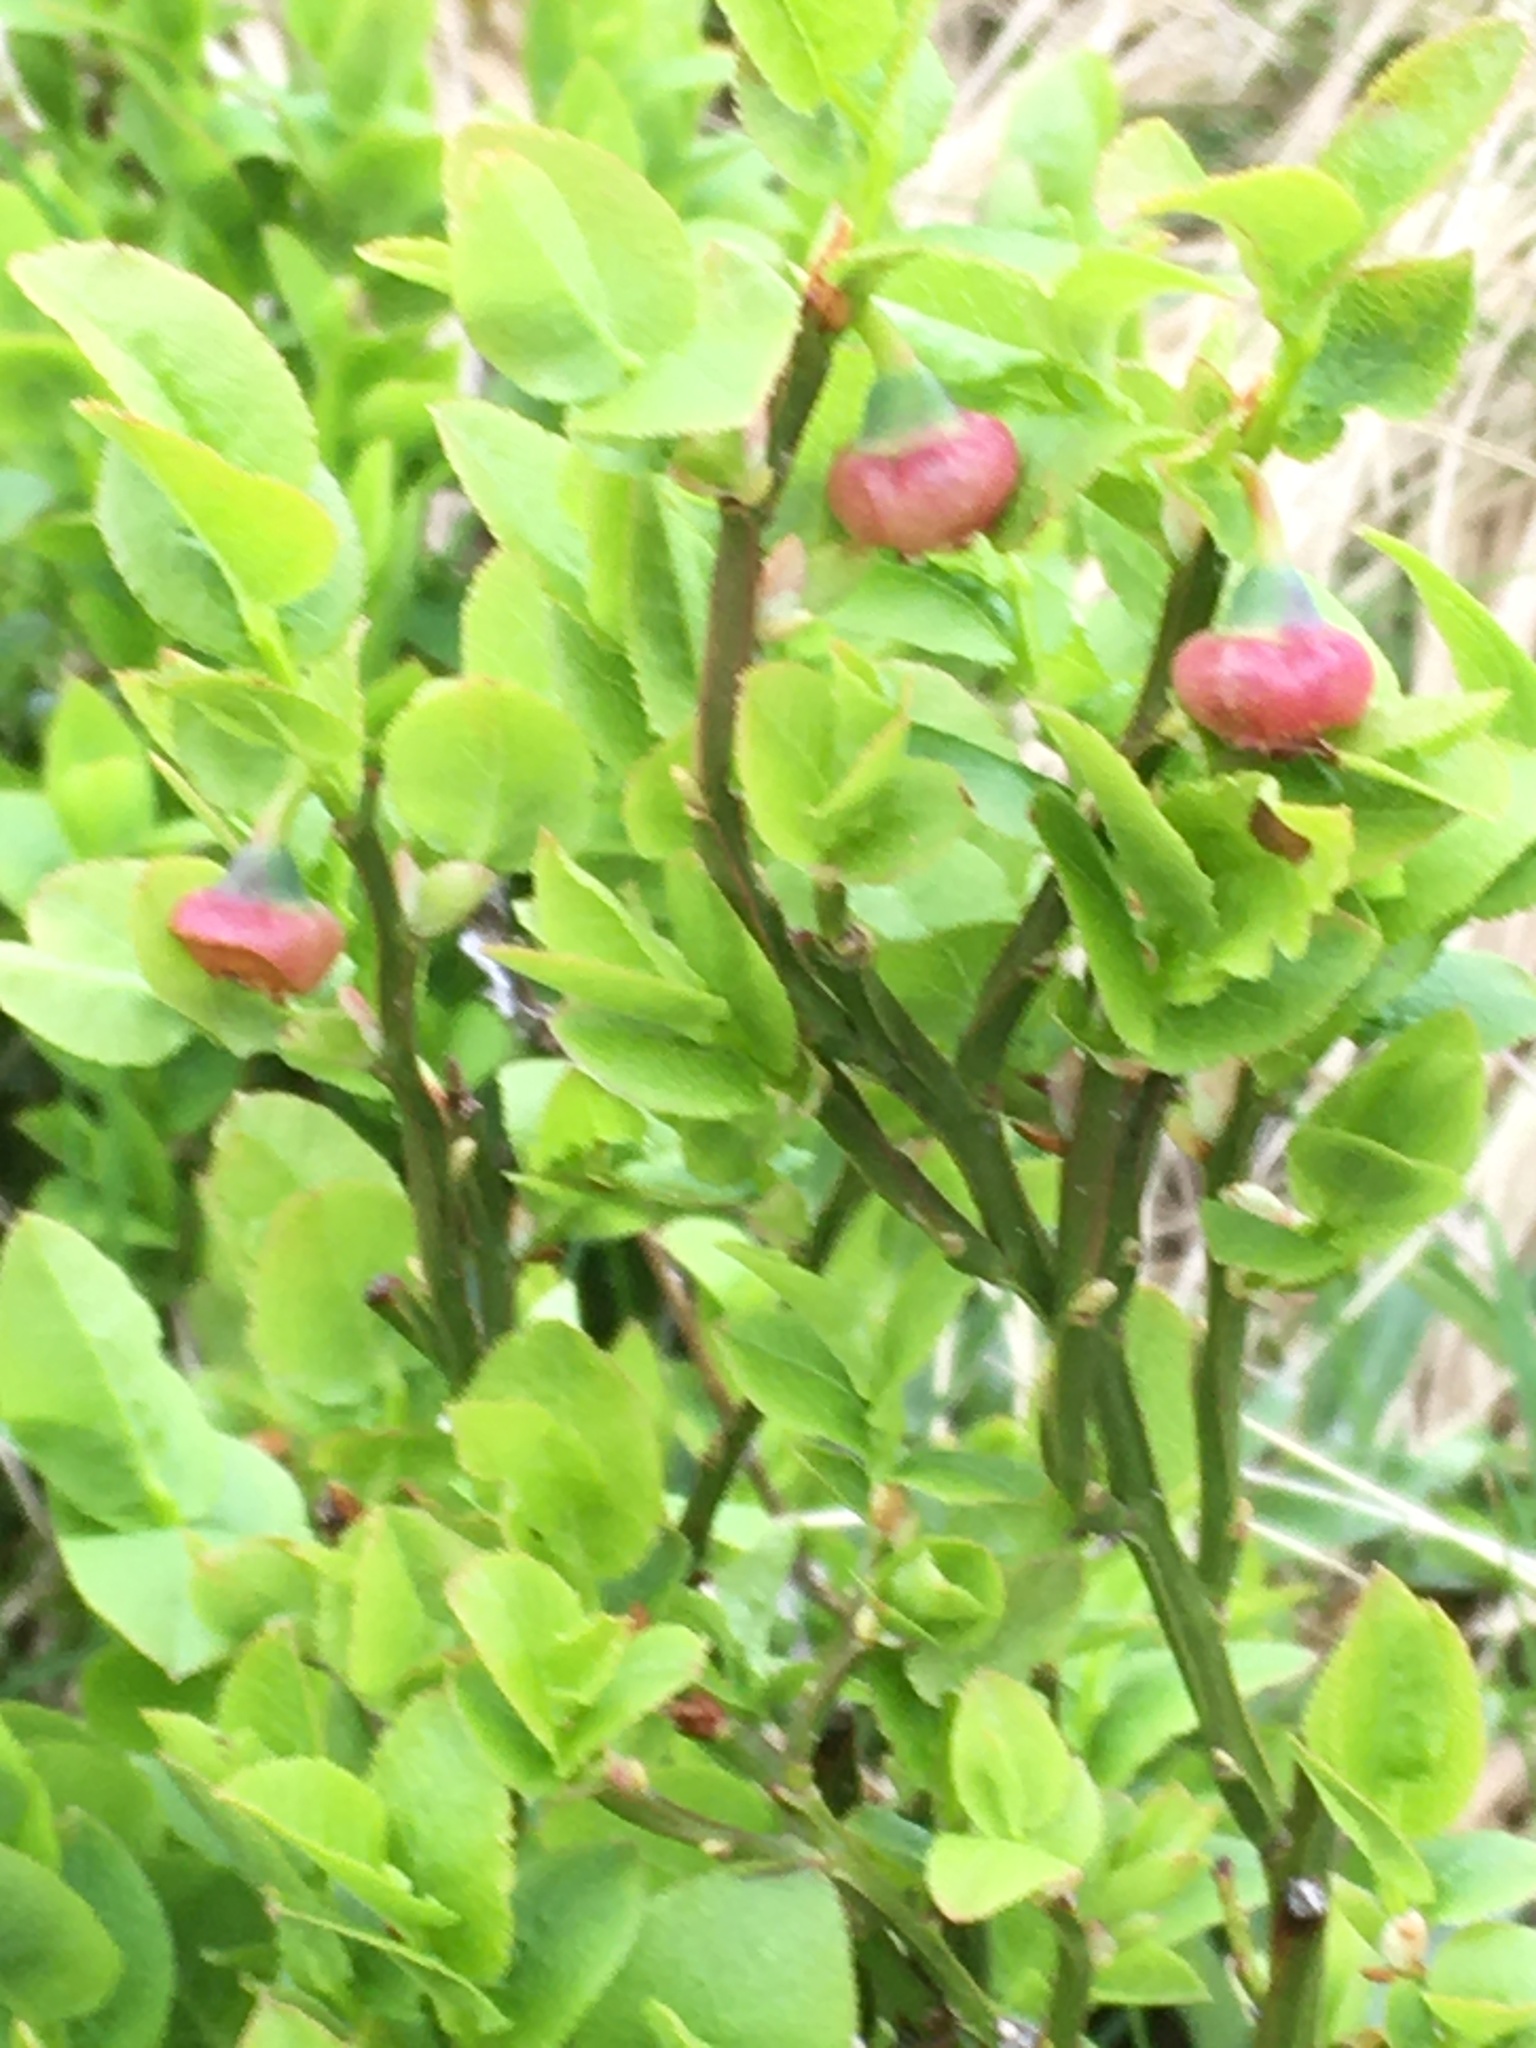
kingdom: Plantae
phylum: Tracheophyta
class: Magnoliopsida
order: Ericales
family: Ericaceae
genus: Vaccinium
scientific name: Vaccinium myrtillus
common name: Bilberry
